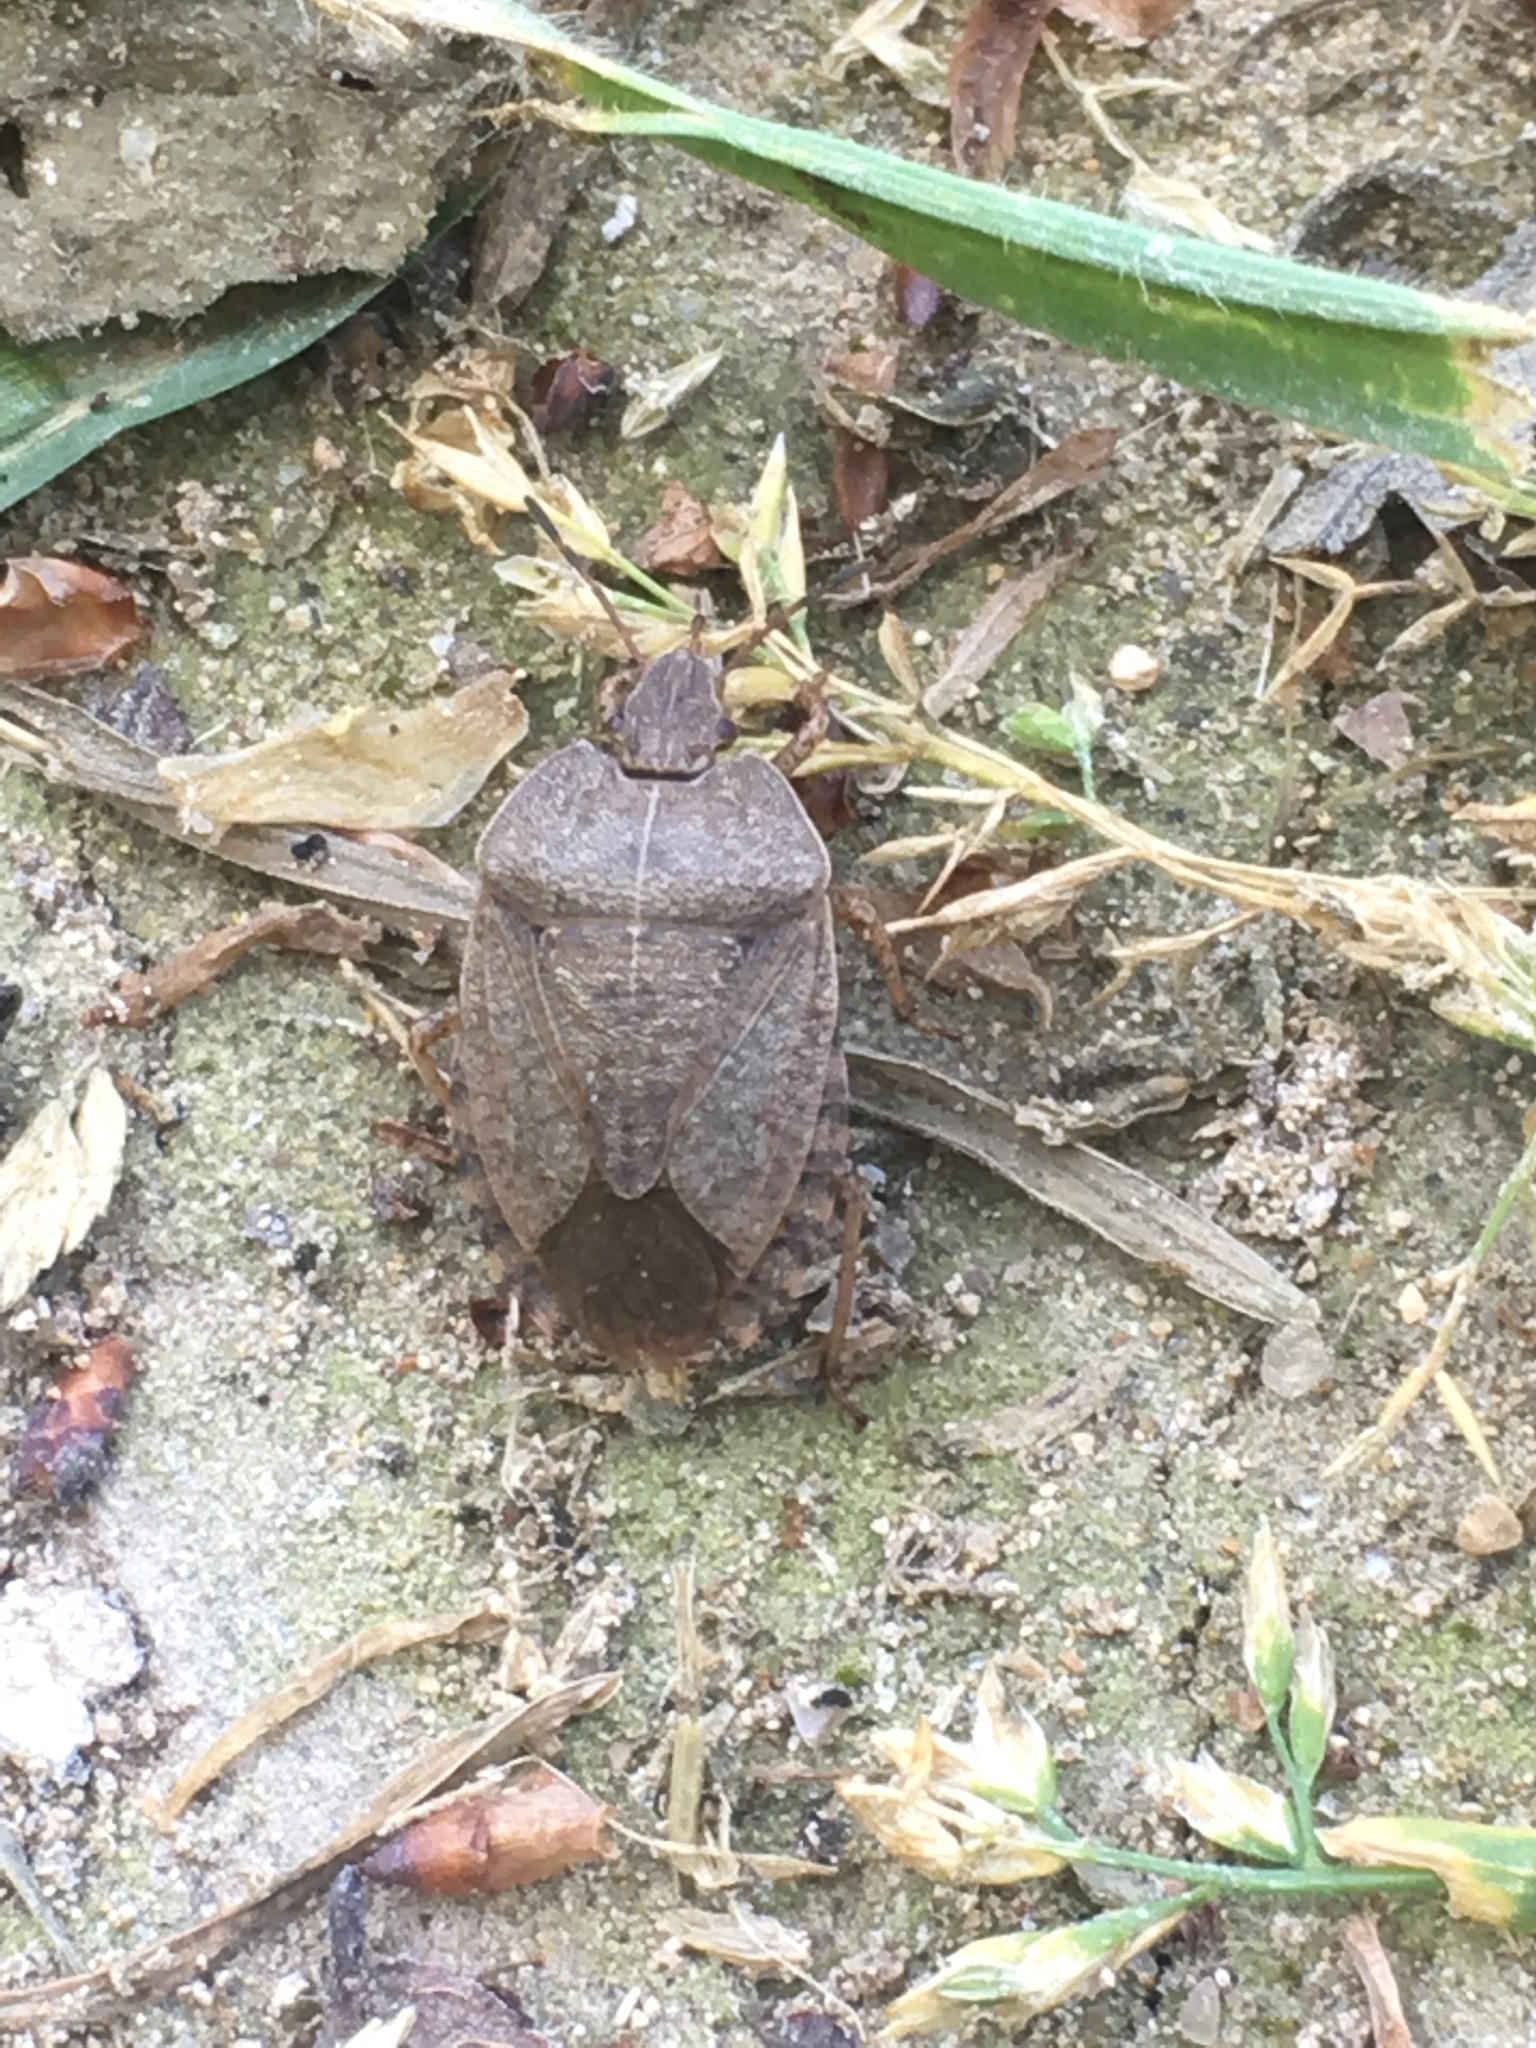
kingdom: Animalia
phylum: Arthropoda
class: Insecta
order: Hemiptera
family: Pentatomidae
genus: Menecles
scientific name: Menecles insertus
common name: Elf shoe stink bug
